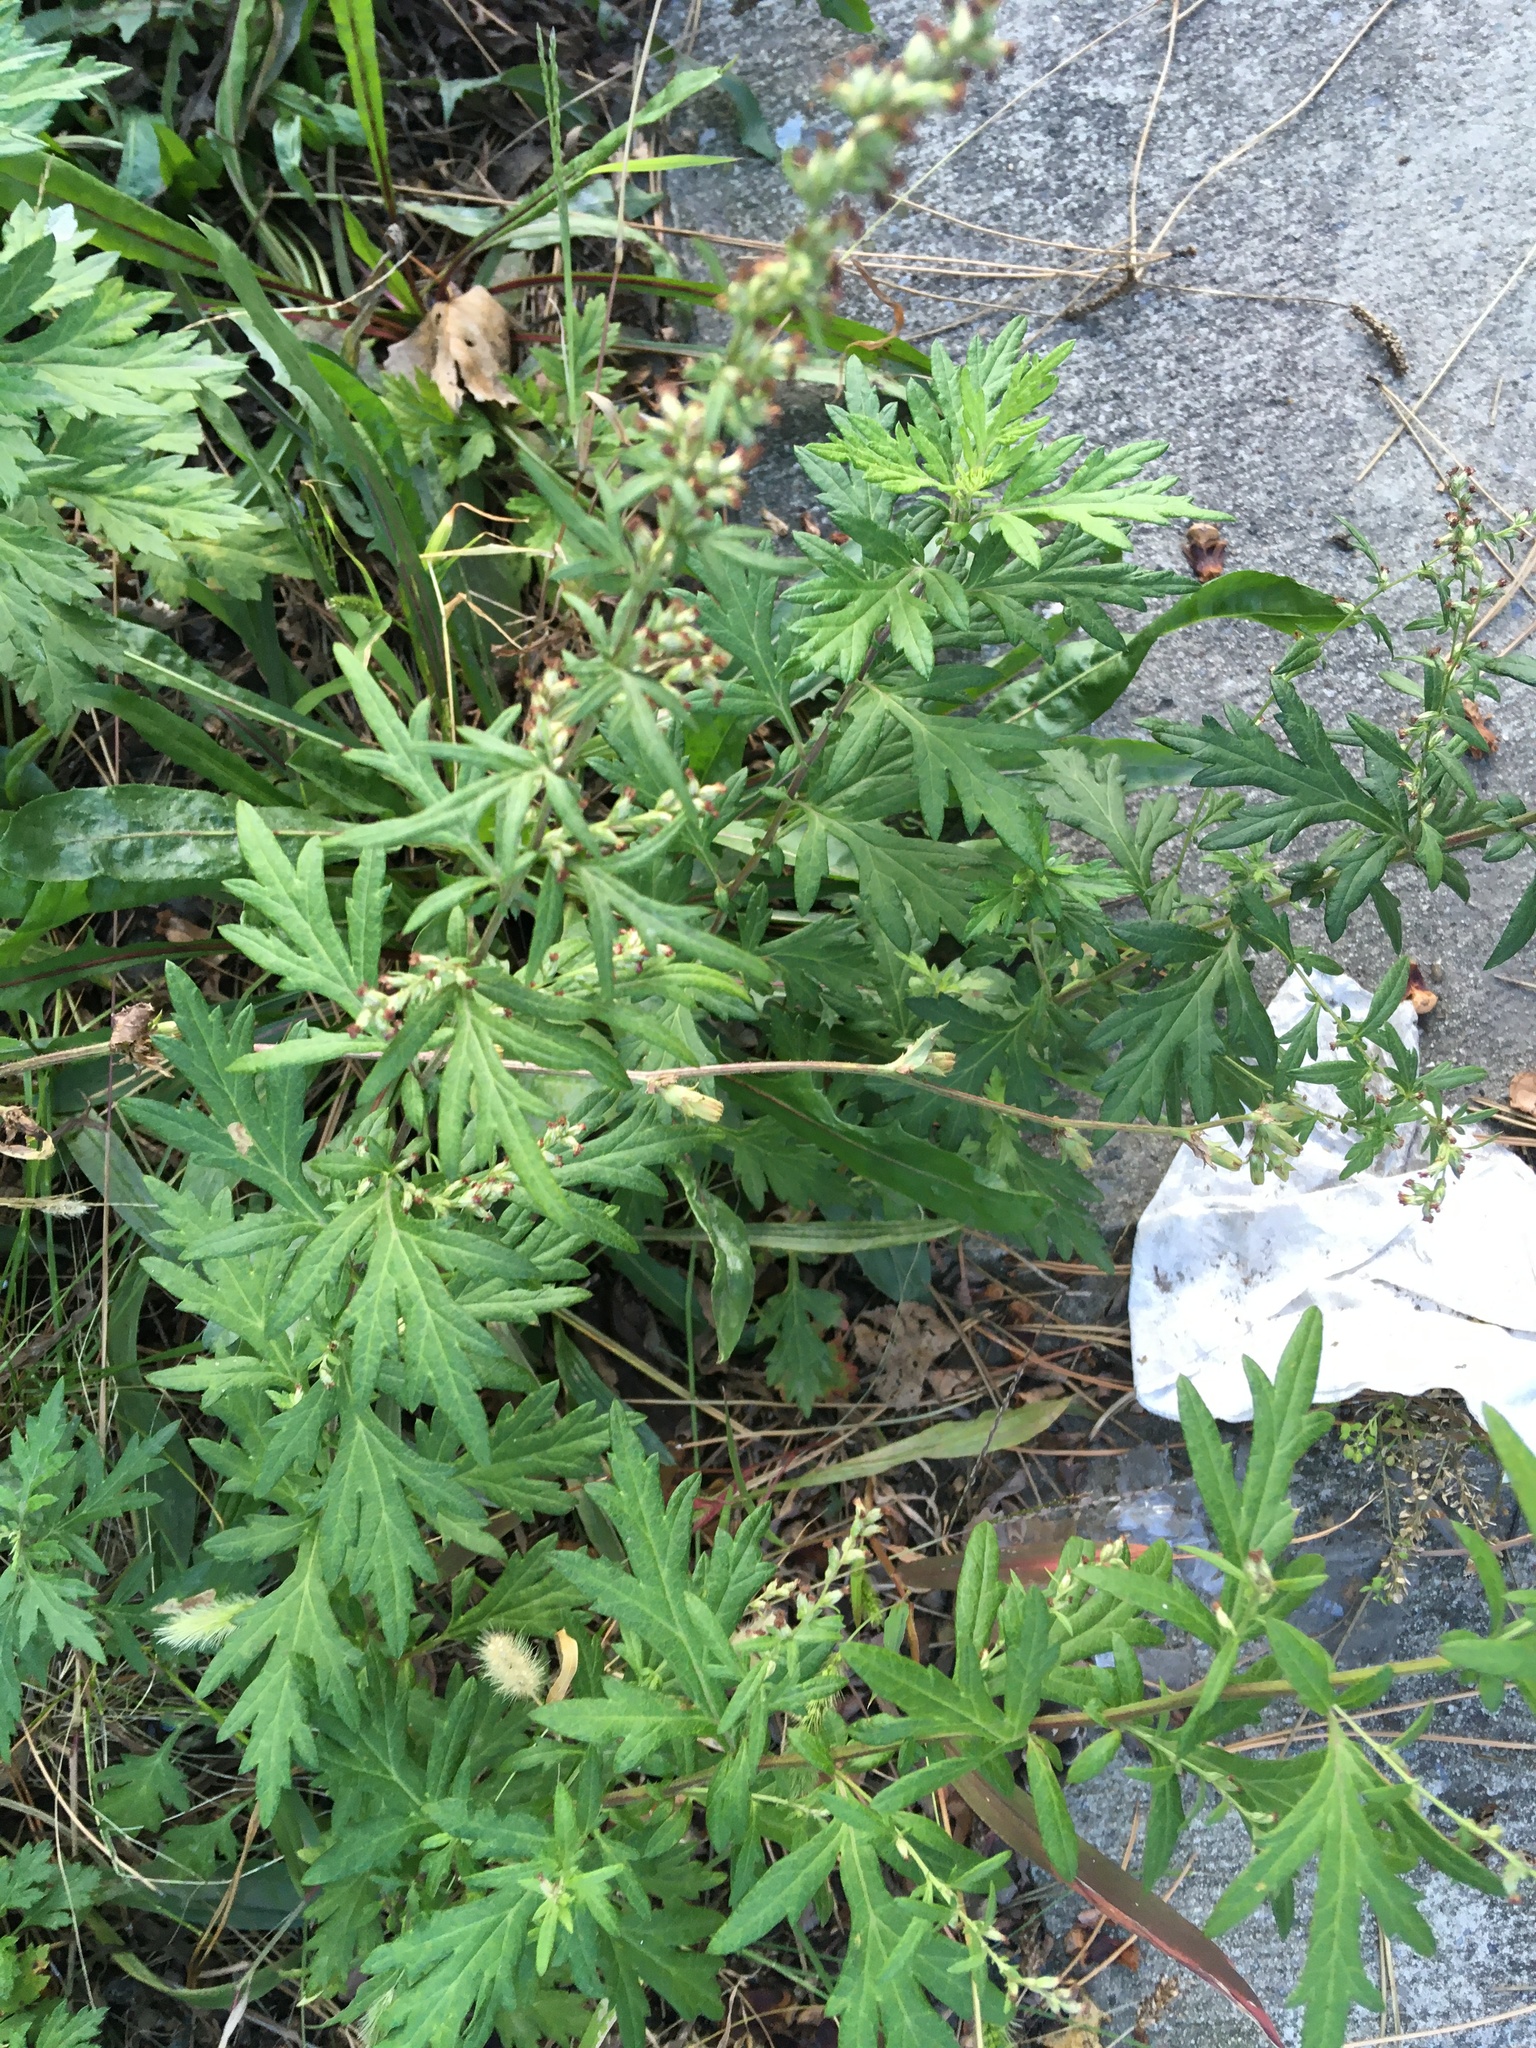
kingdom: Plantae
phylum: Tracheophyta
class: Magnoliopsida
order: Asterales
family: Asteraceae
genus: Artemisia
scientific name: Artemisia vulgaris
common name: Mugwort
